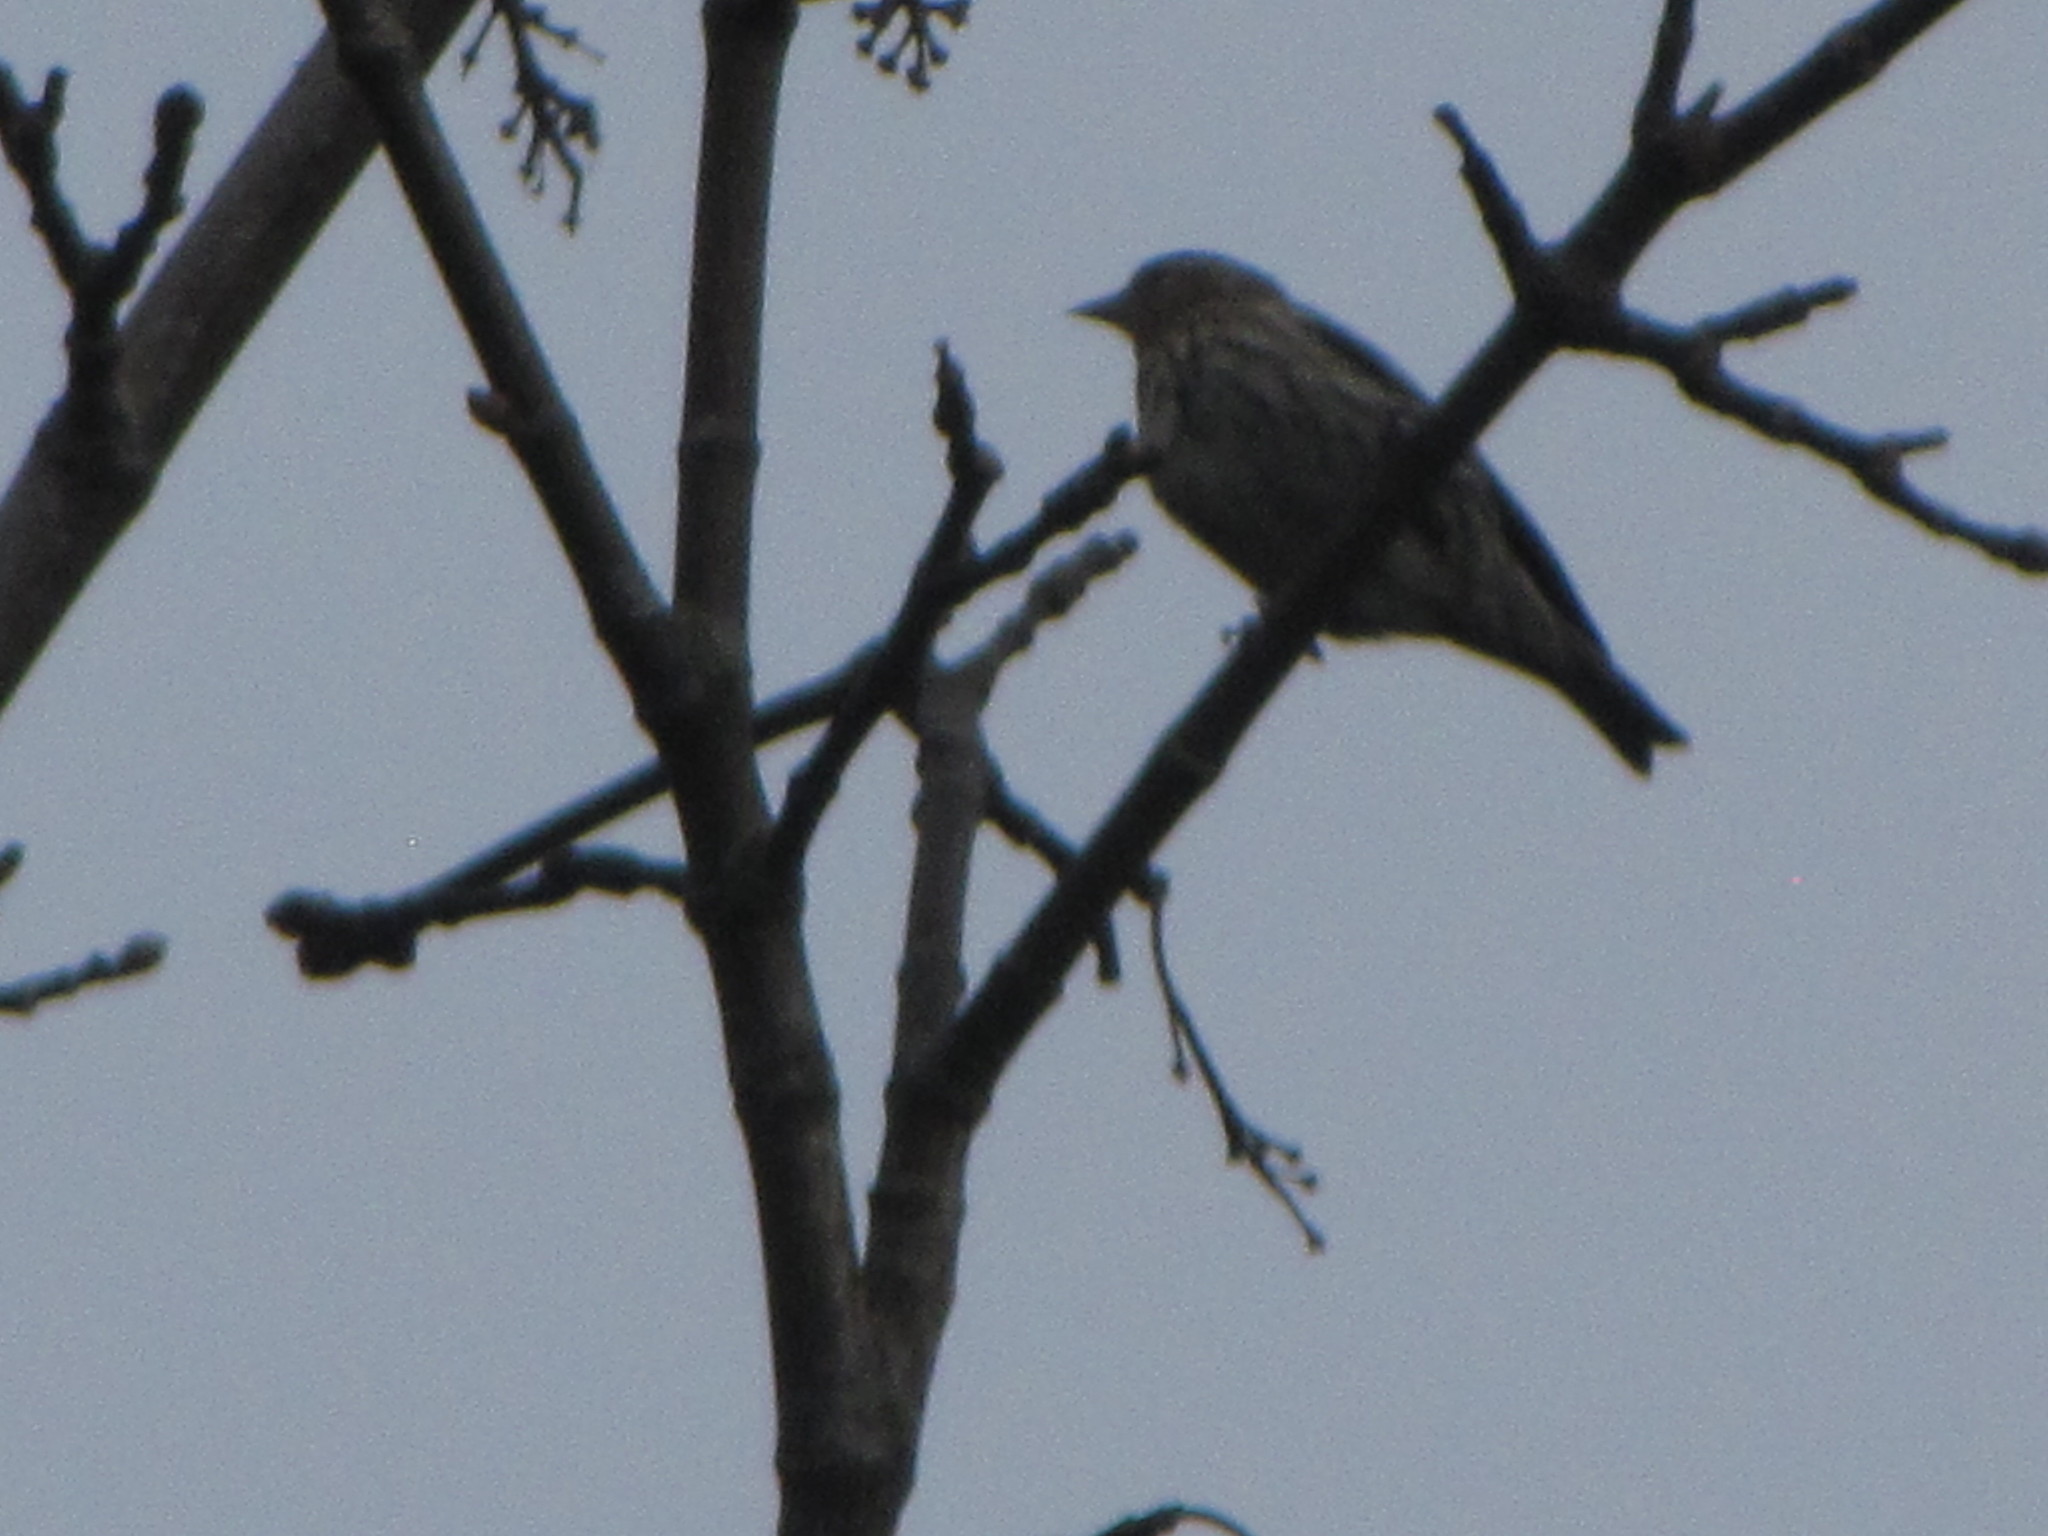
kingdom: Animalia
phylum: Chordata
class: Aves
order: Passeriformes
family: Fringillidae
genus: Spinus
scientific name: Spinus pinus
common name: Pine siskin
